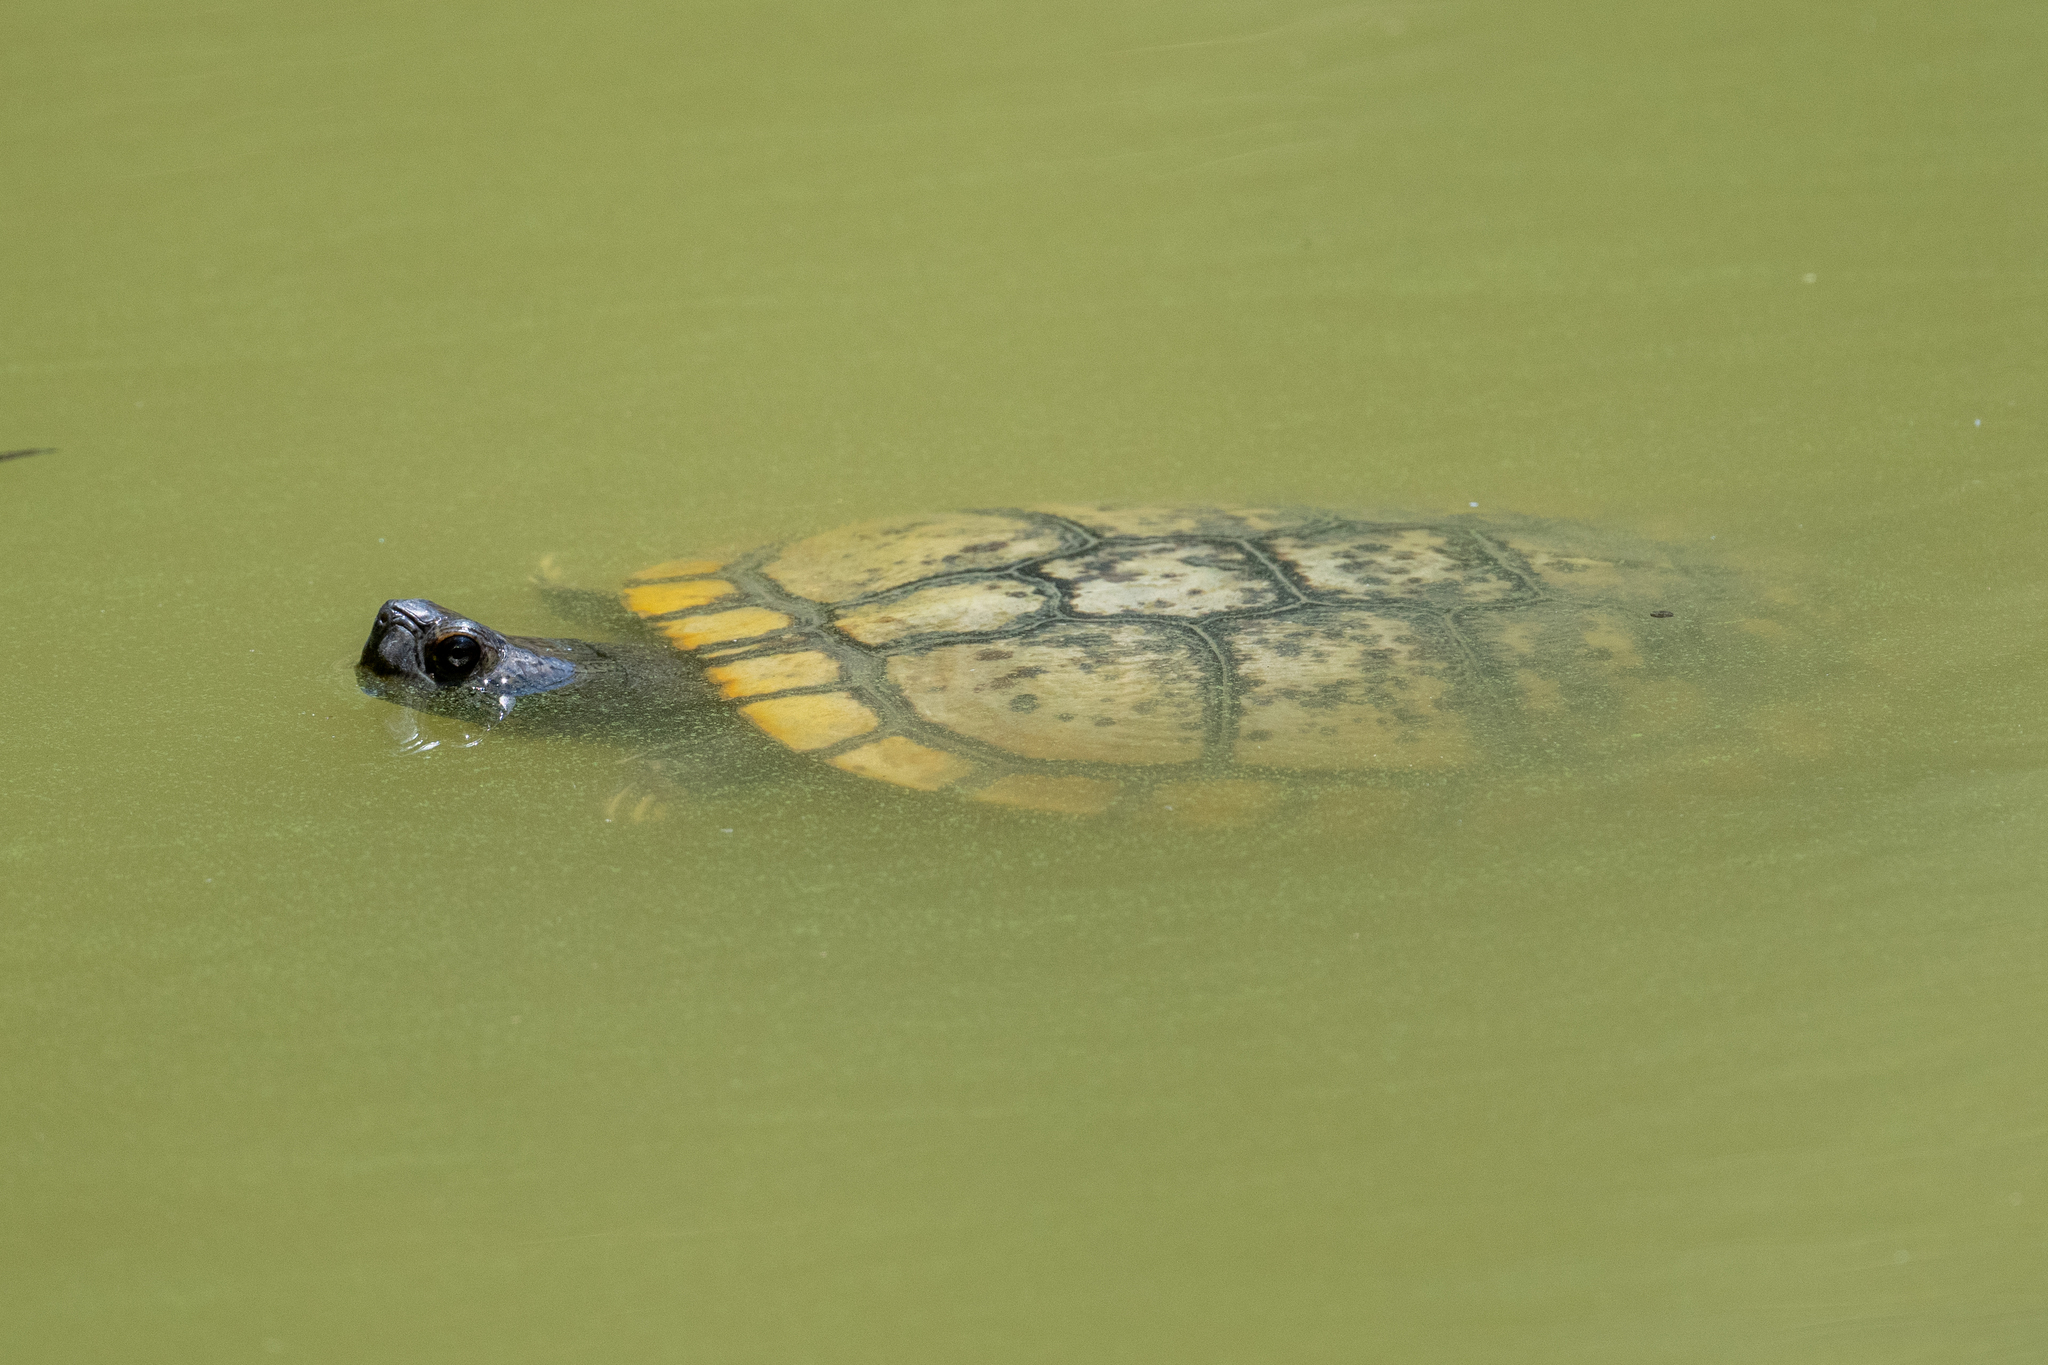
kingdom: Animalia
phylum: Chordata
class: Testudines
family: Emydidae
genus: Trachemys
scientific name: Trachemys scripta
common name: Slider
